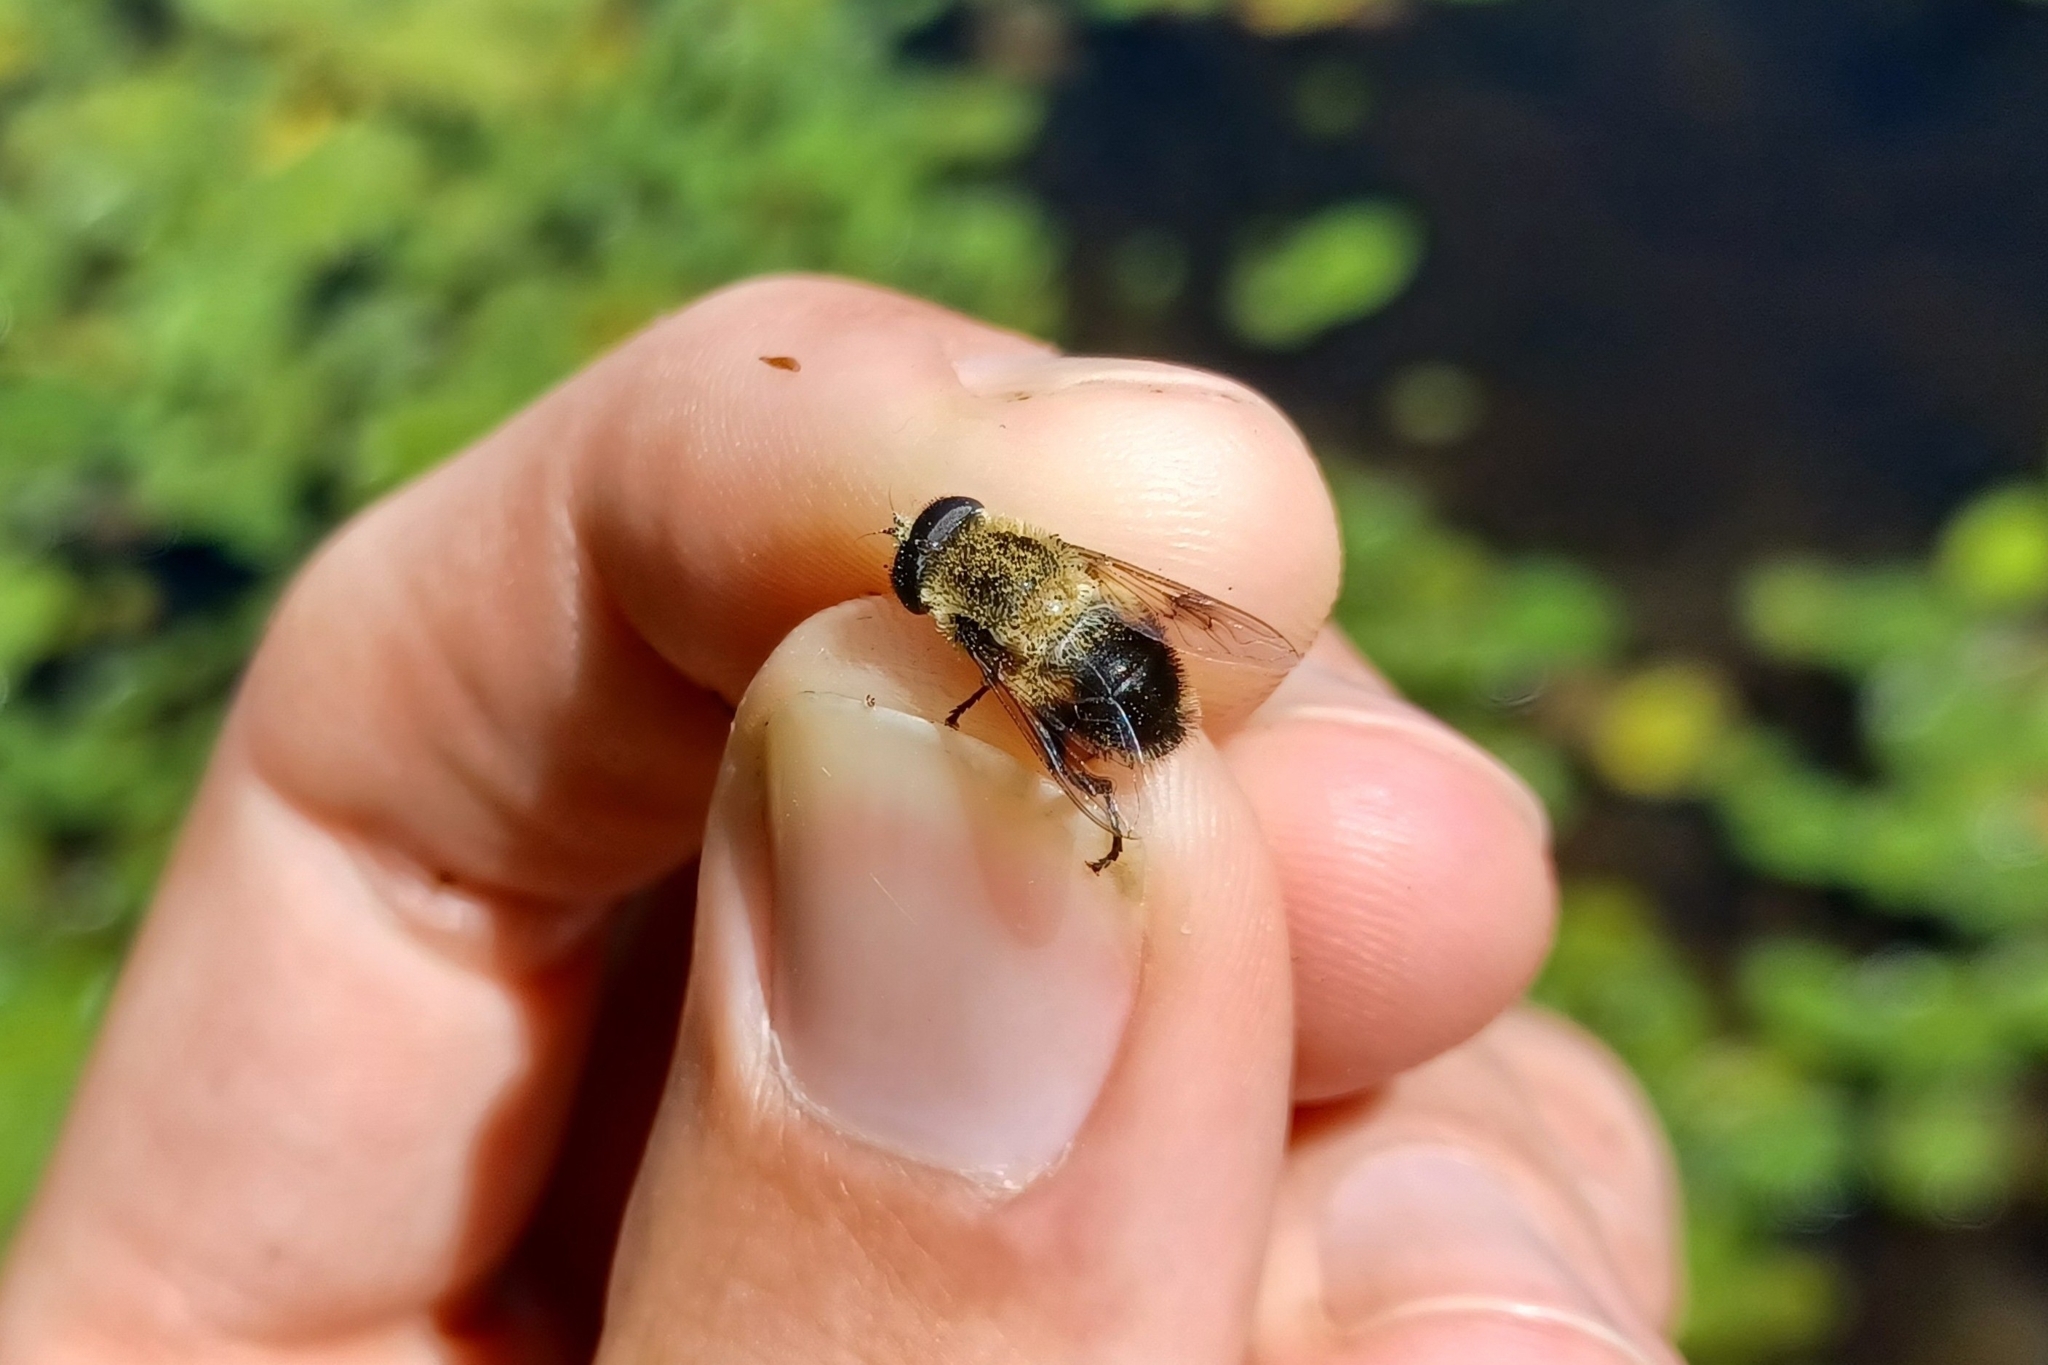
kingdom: Animalia
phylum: Arthropoda
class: Insecta
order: Diptera
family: Syrphidae
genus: Eristalis
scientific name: Eristalis anthophorina
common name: Orange-spotted drone fly
